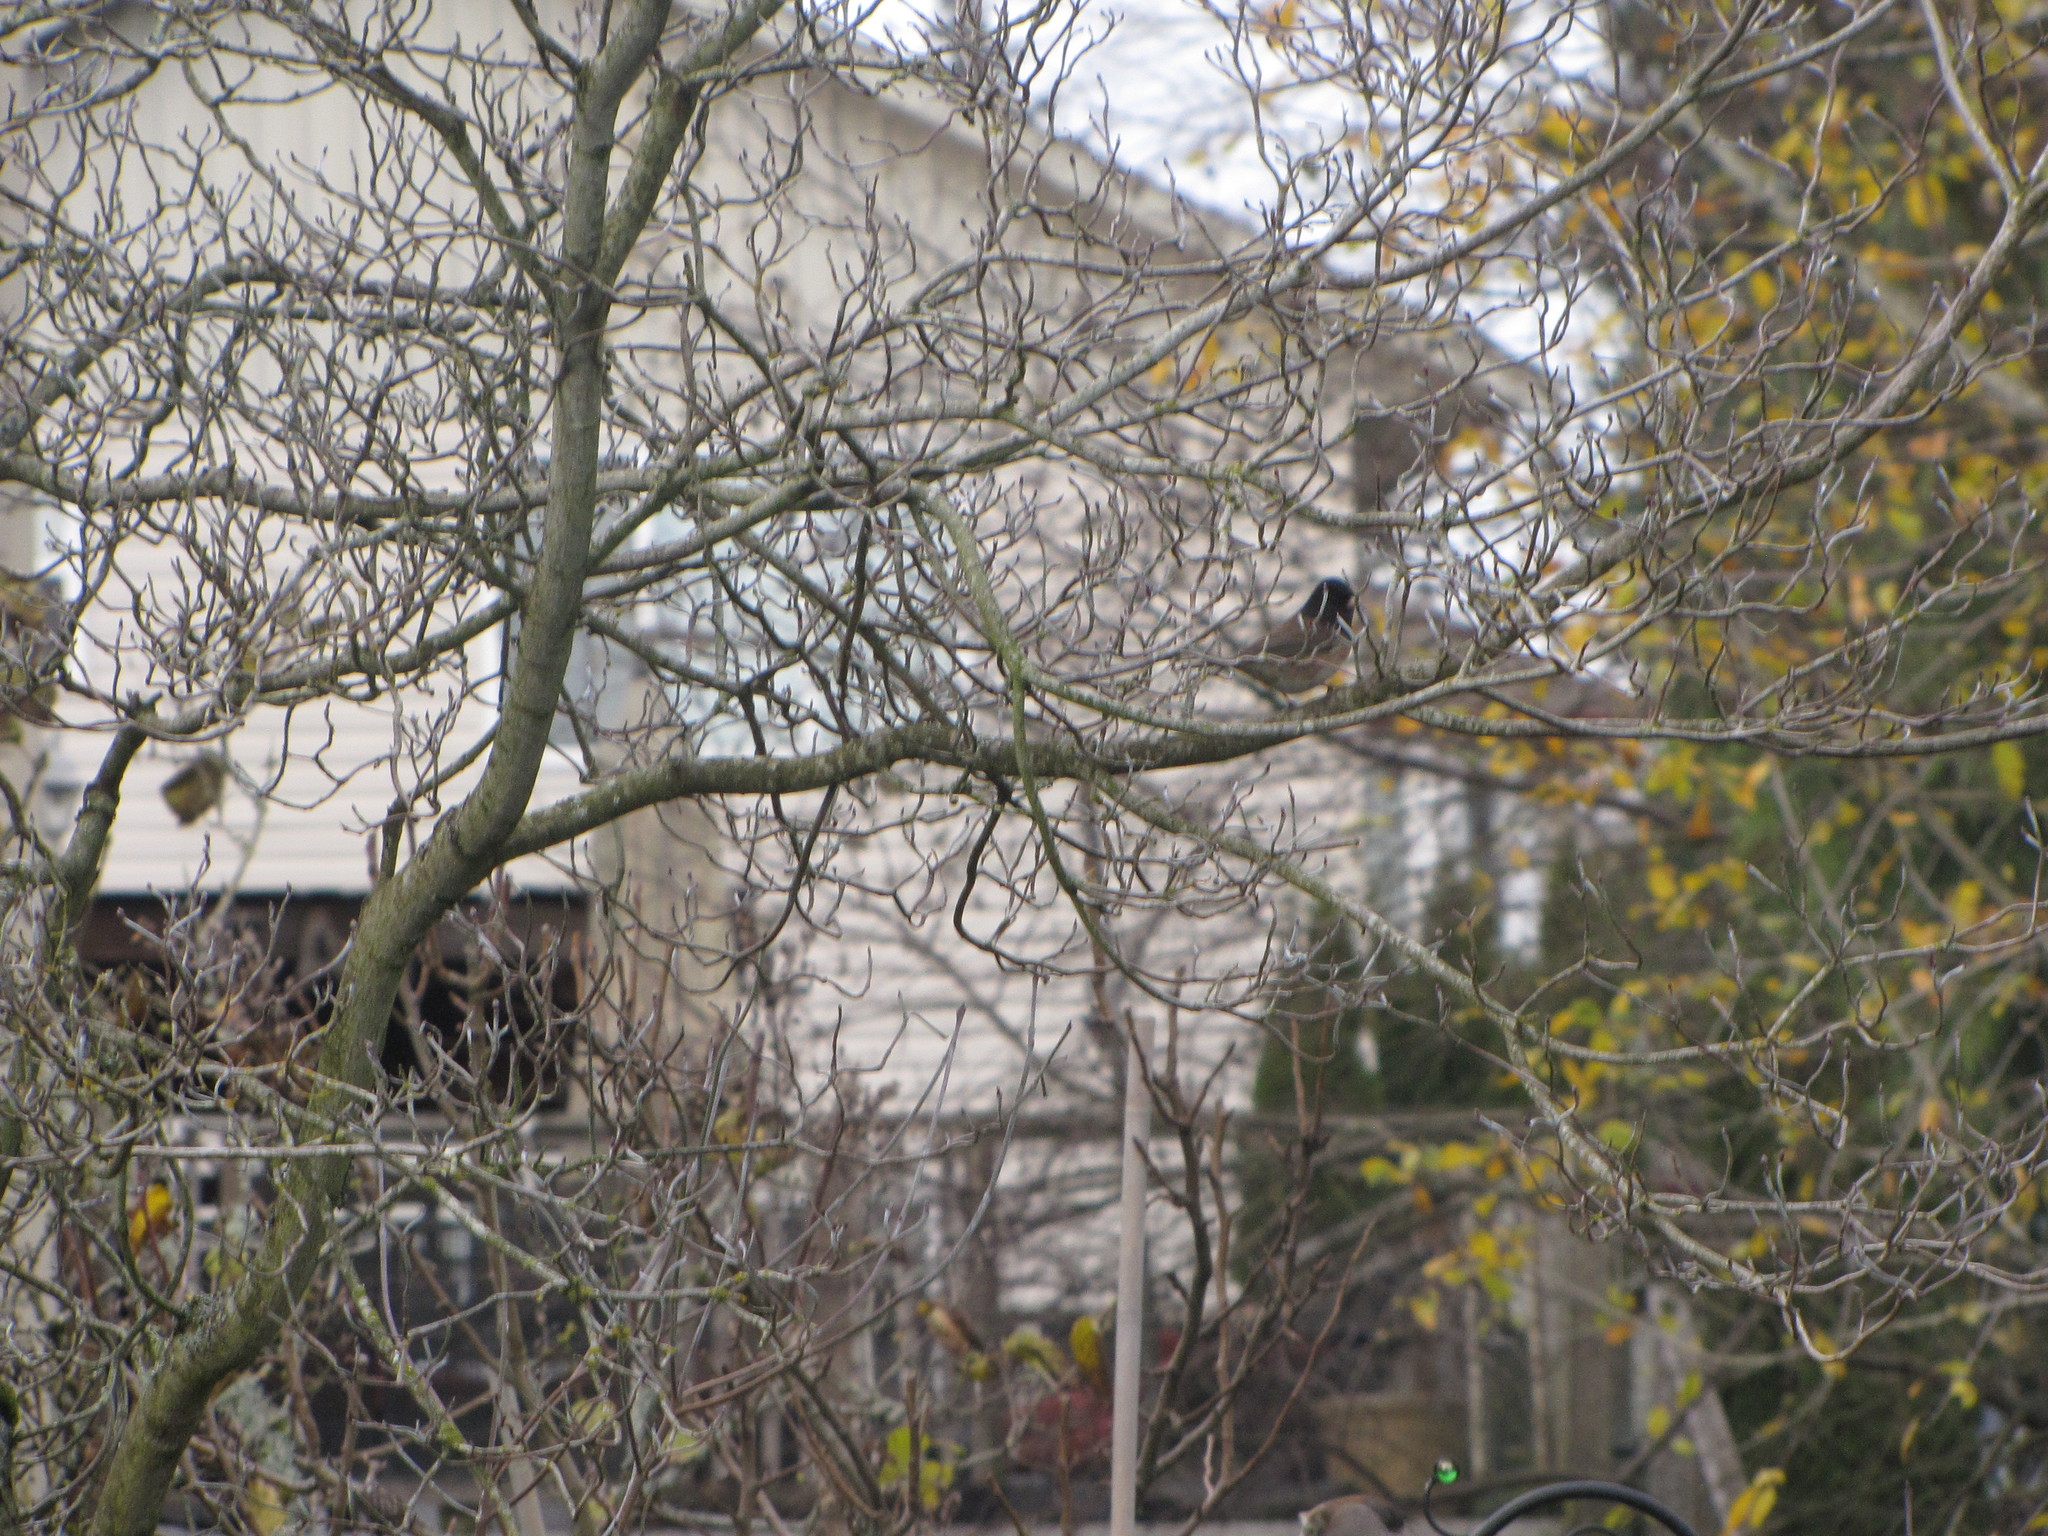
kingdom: Animalia
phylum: Chordata
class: Aves
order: Passeriformes
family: Passerellidae
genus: Junco
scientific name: Junco hyemalis
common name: Dark-eyed junco
